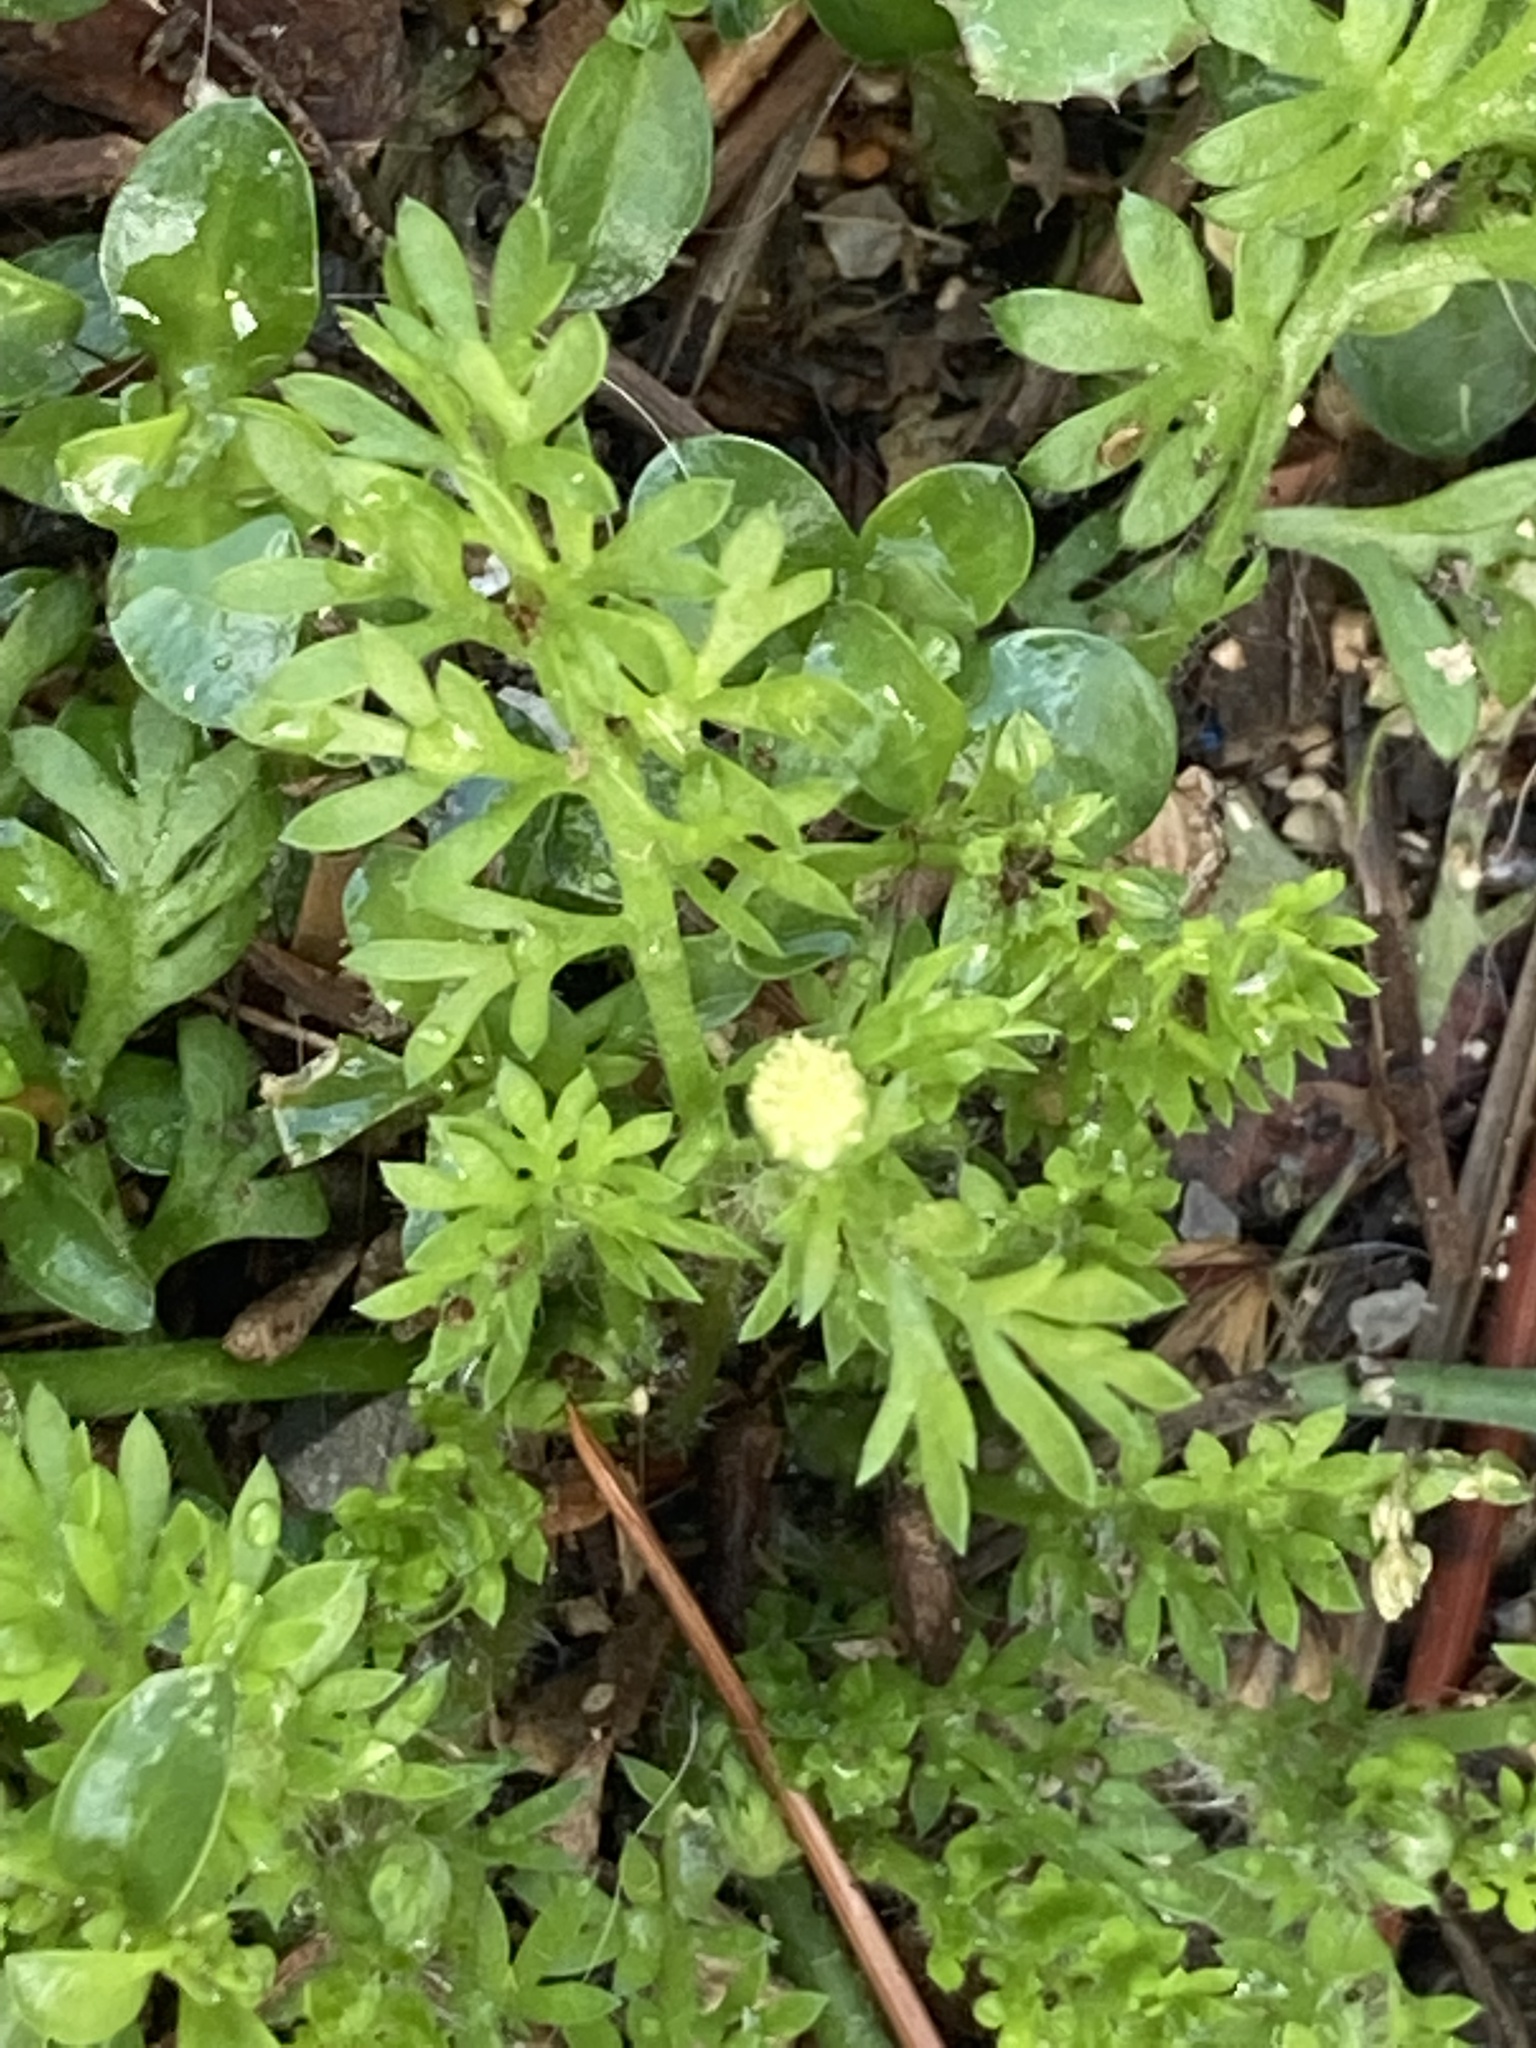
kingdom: Plantae
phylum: Tracheophyta
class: Magnoliopsida
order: Asterales
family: Asteraceae
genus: Cotula
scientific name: Cotula australis
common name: Australian waterbuttons
